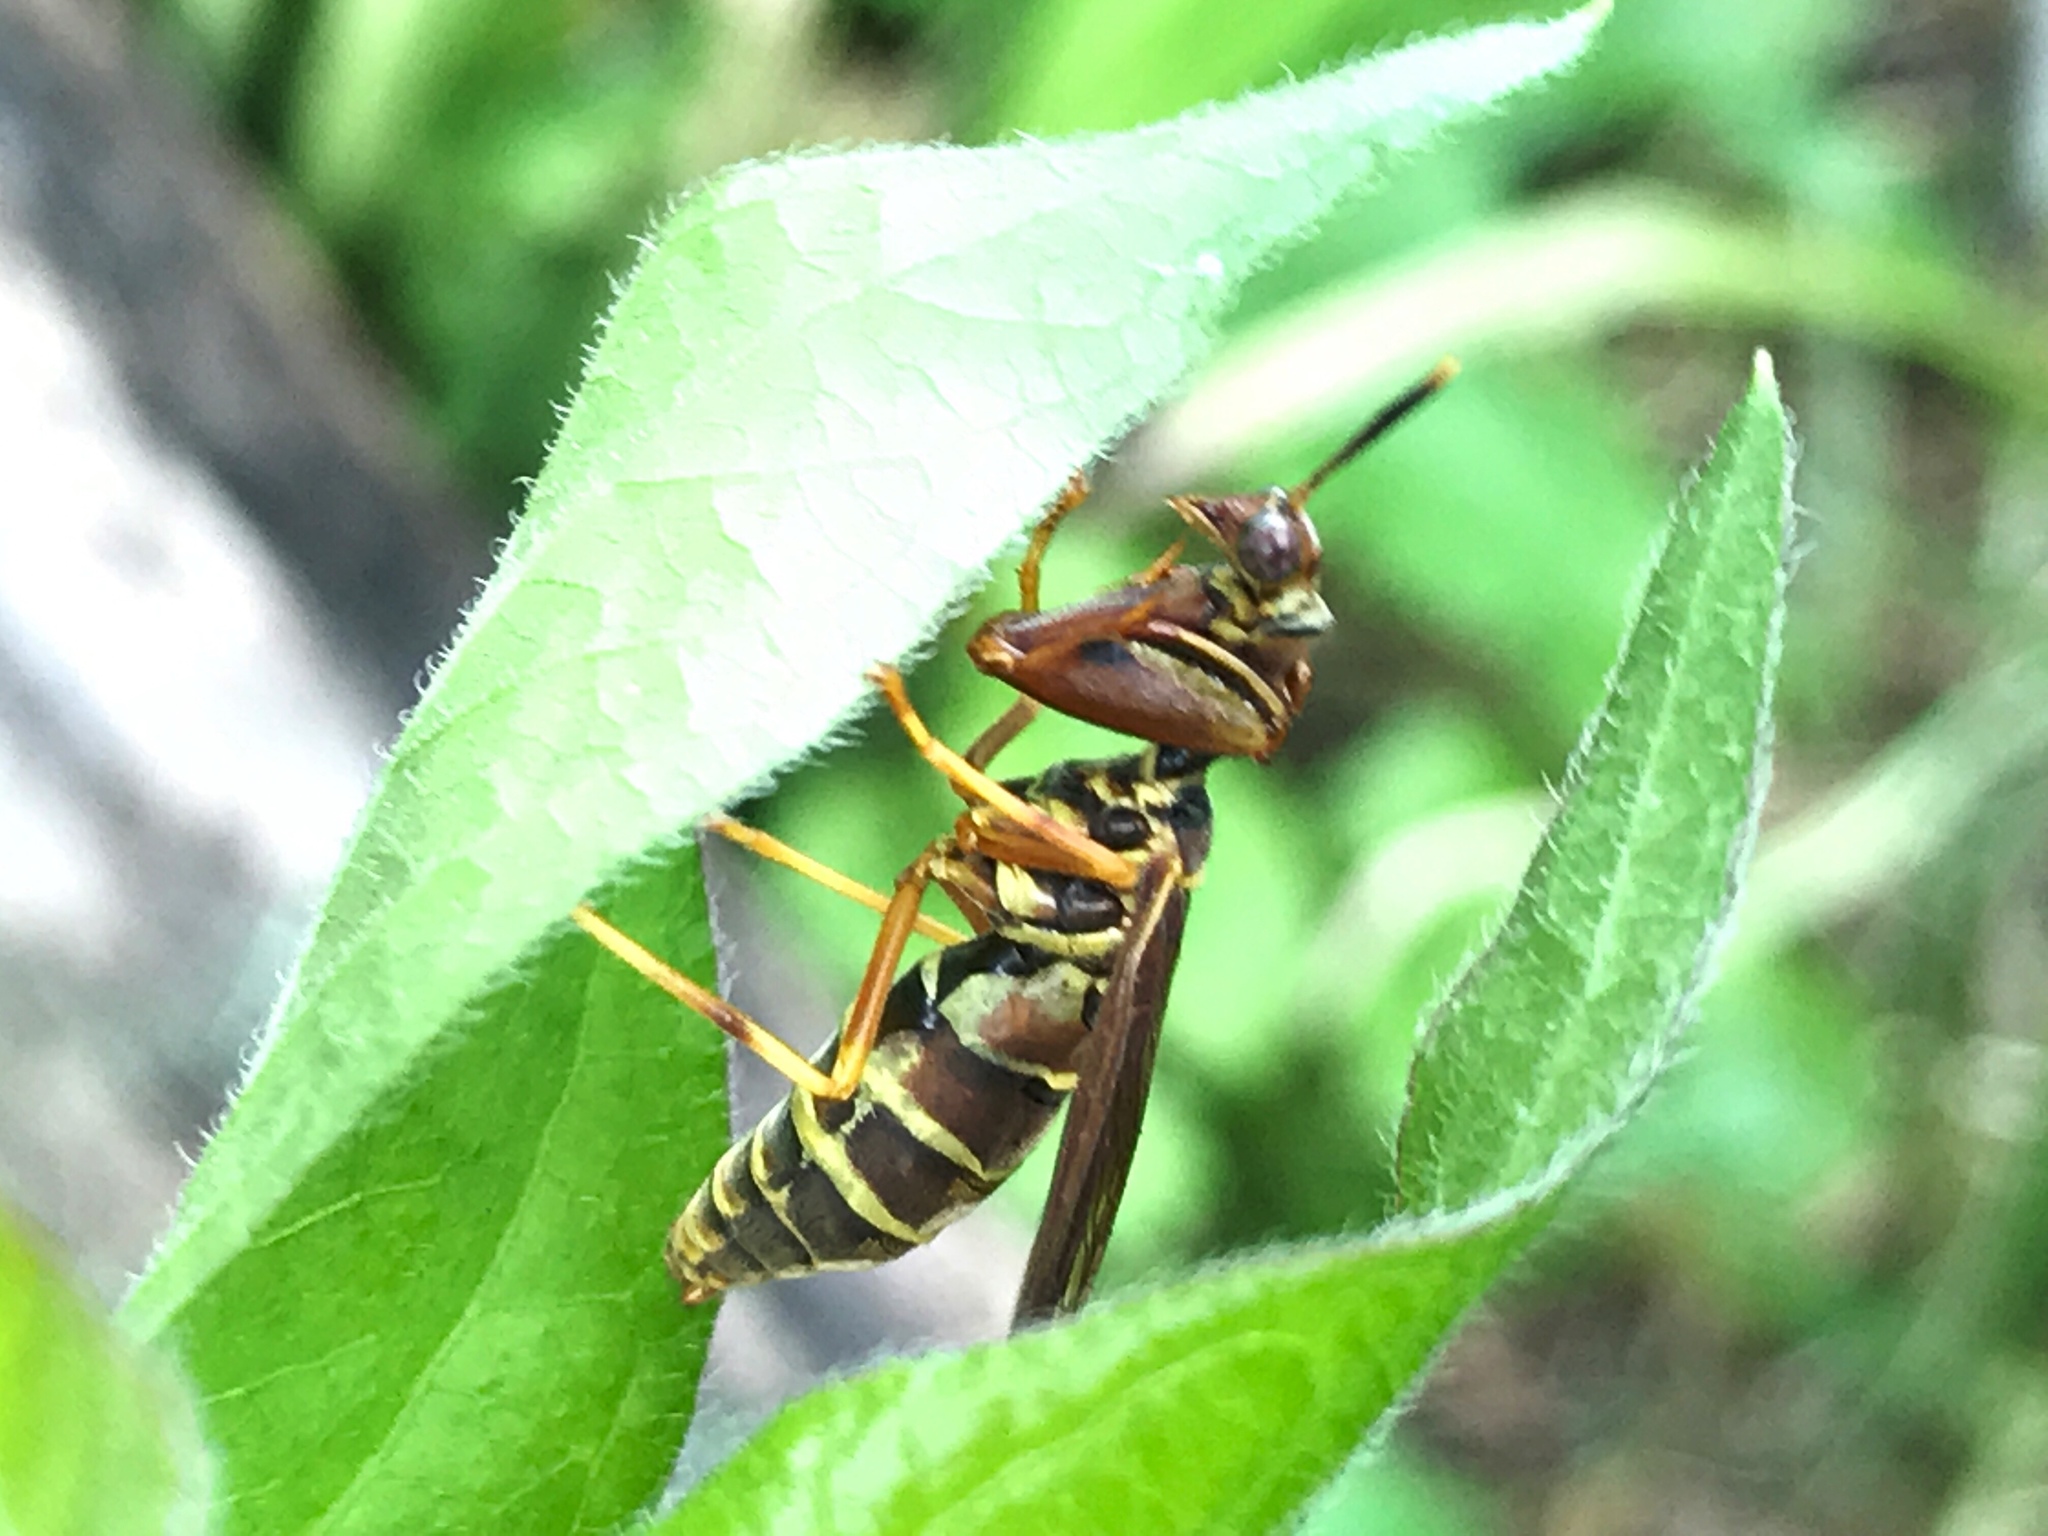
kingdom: Animalia
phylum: Arthropoda
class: Insecta
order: Neuroptera
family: Mantispidae
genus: Climaciella
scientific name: Climaciella brunnea
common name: Brown wasp mantidfly
